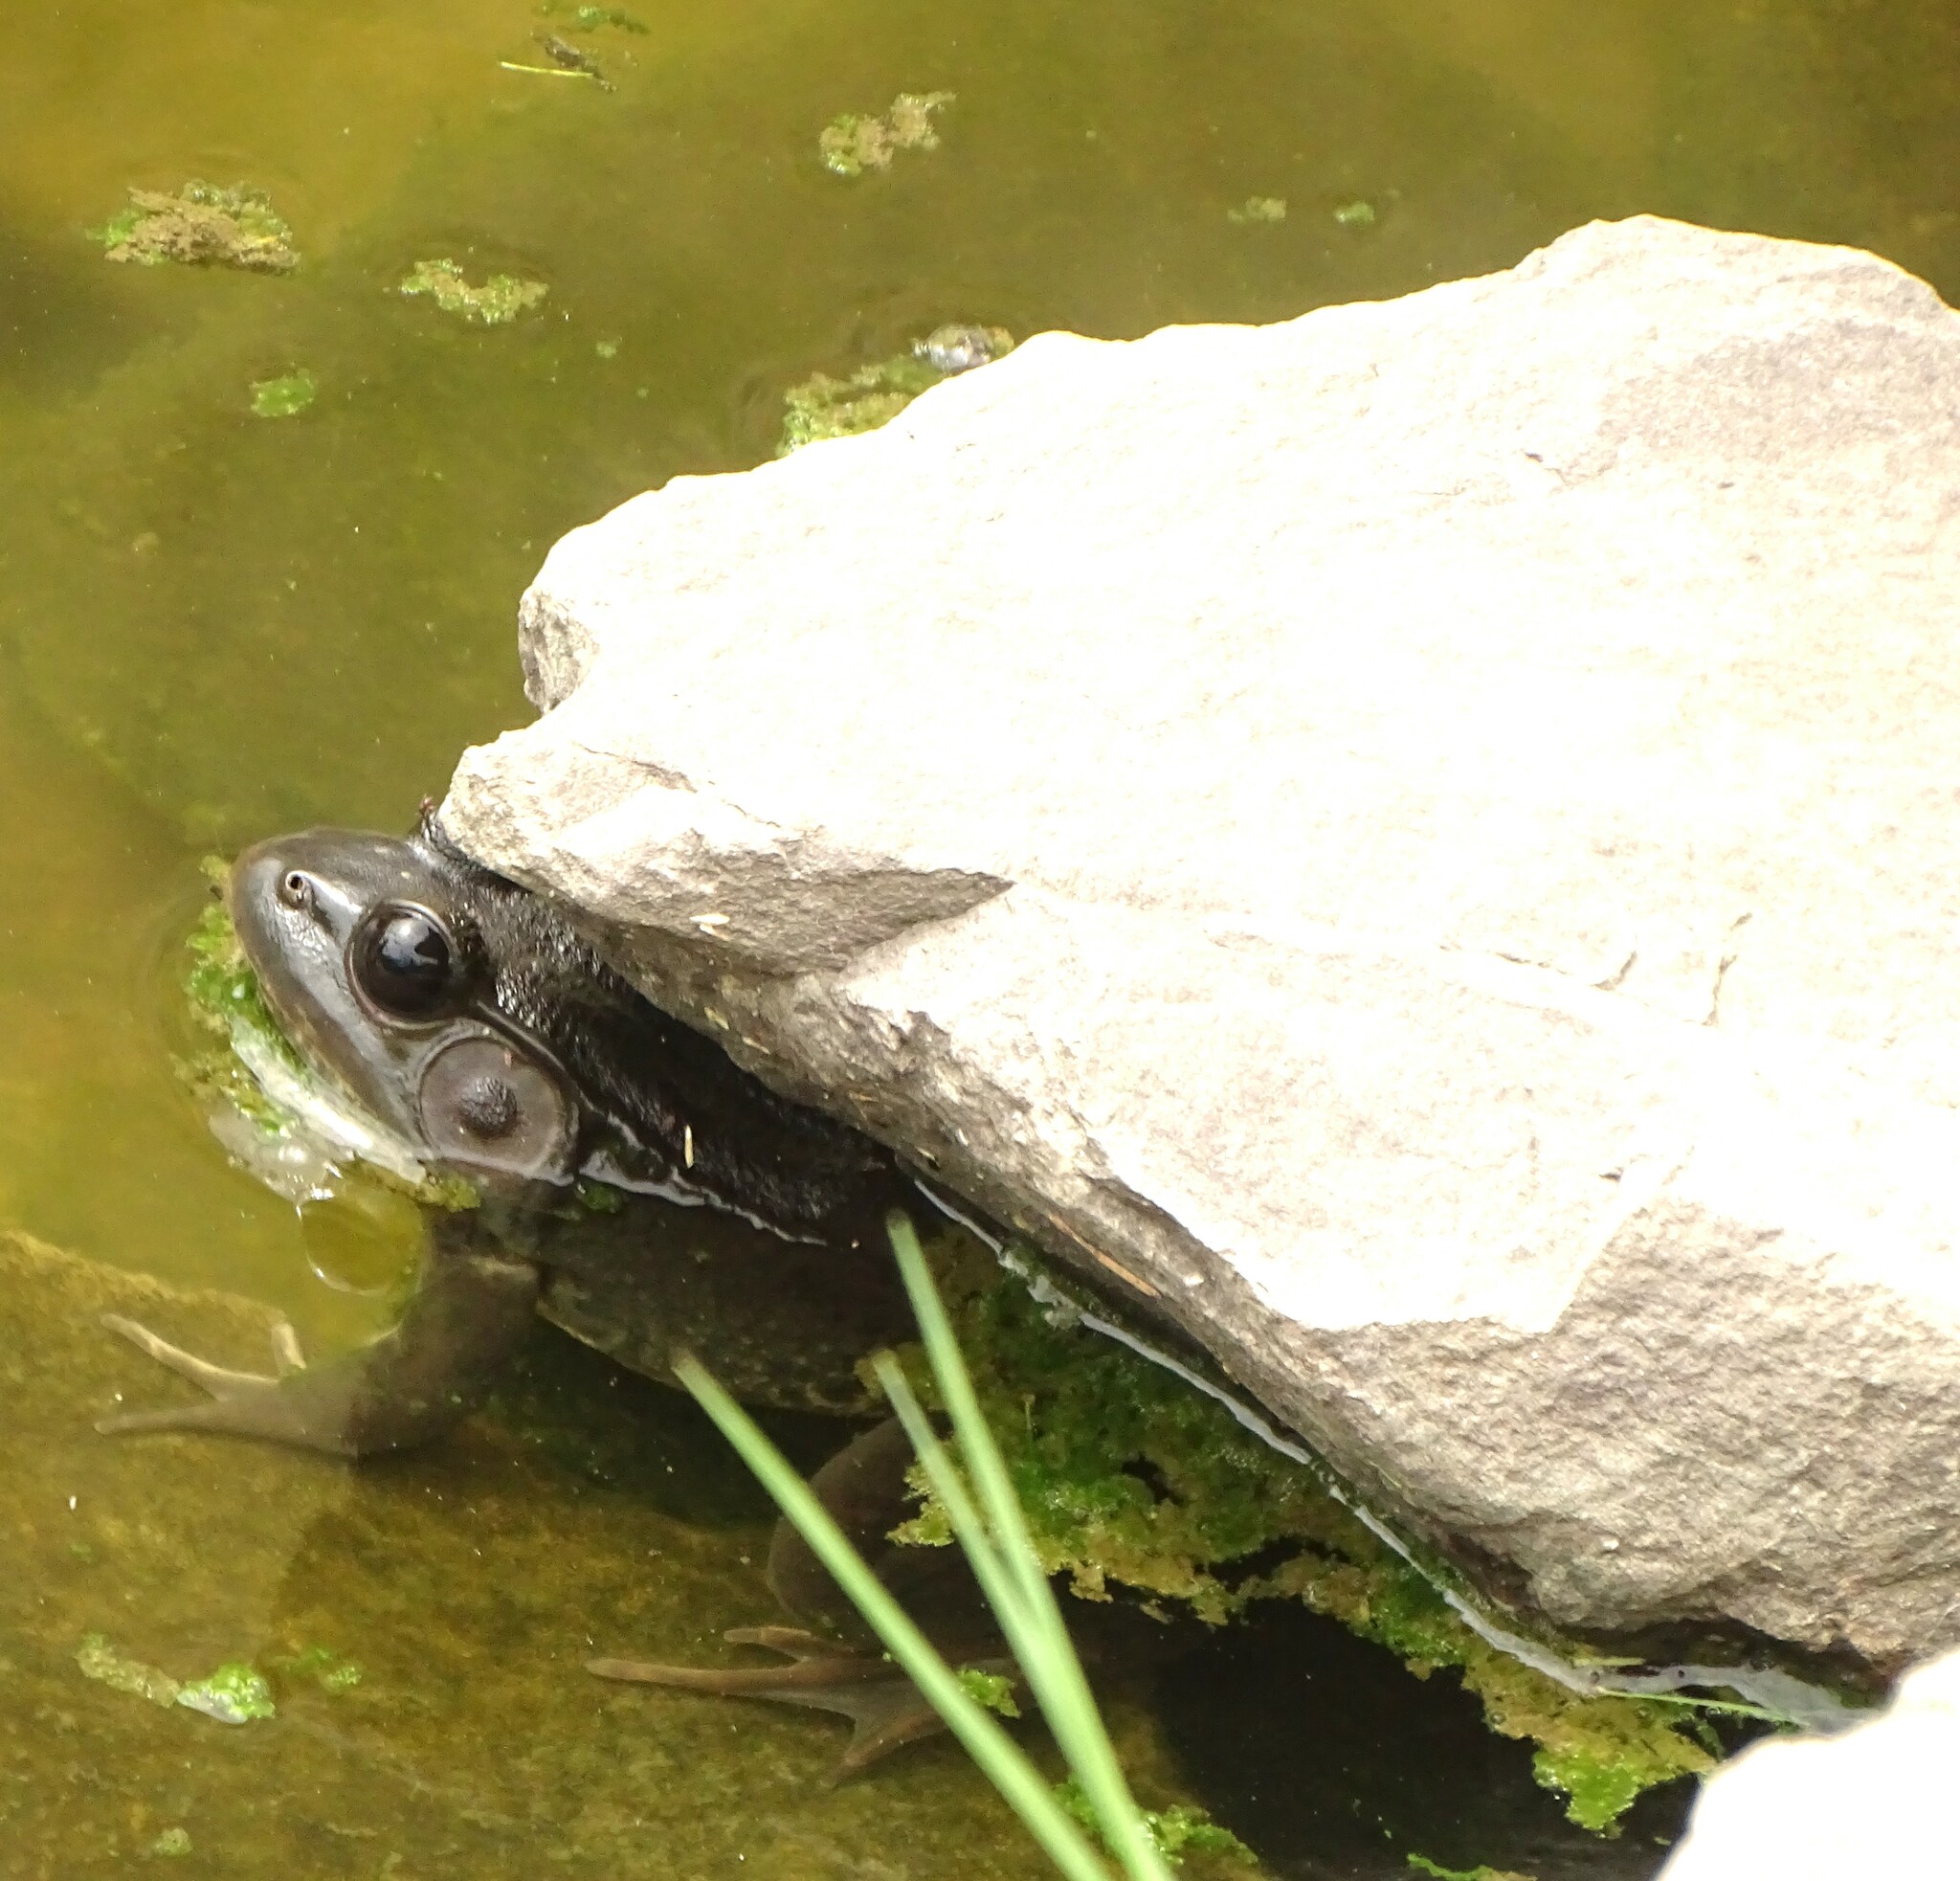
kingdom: Animalia
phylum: Chordata
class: Amphibia
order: Anura
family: Ranidae
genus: Lithobates
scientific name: Lithobates clamitans
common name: Green frog
